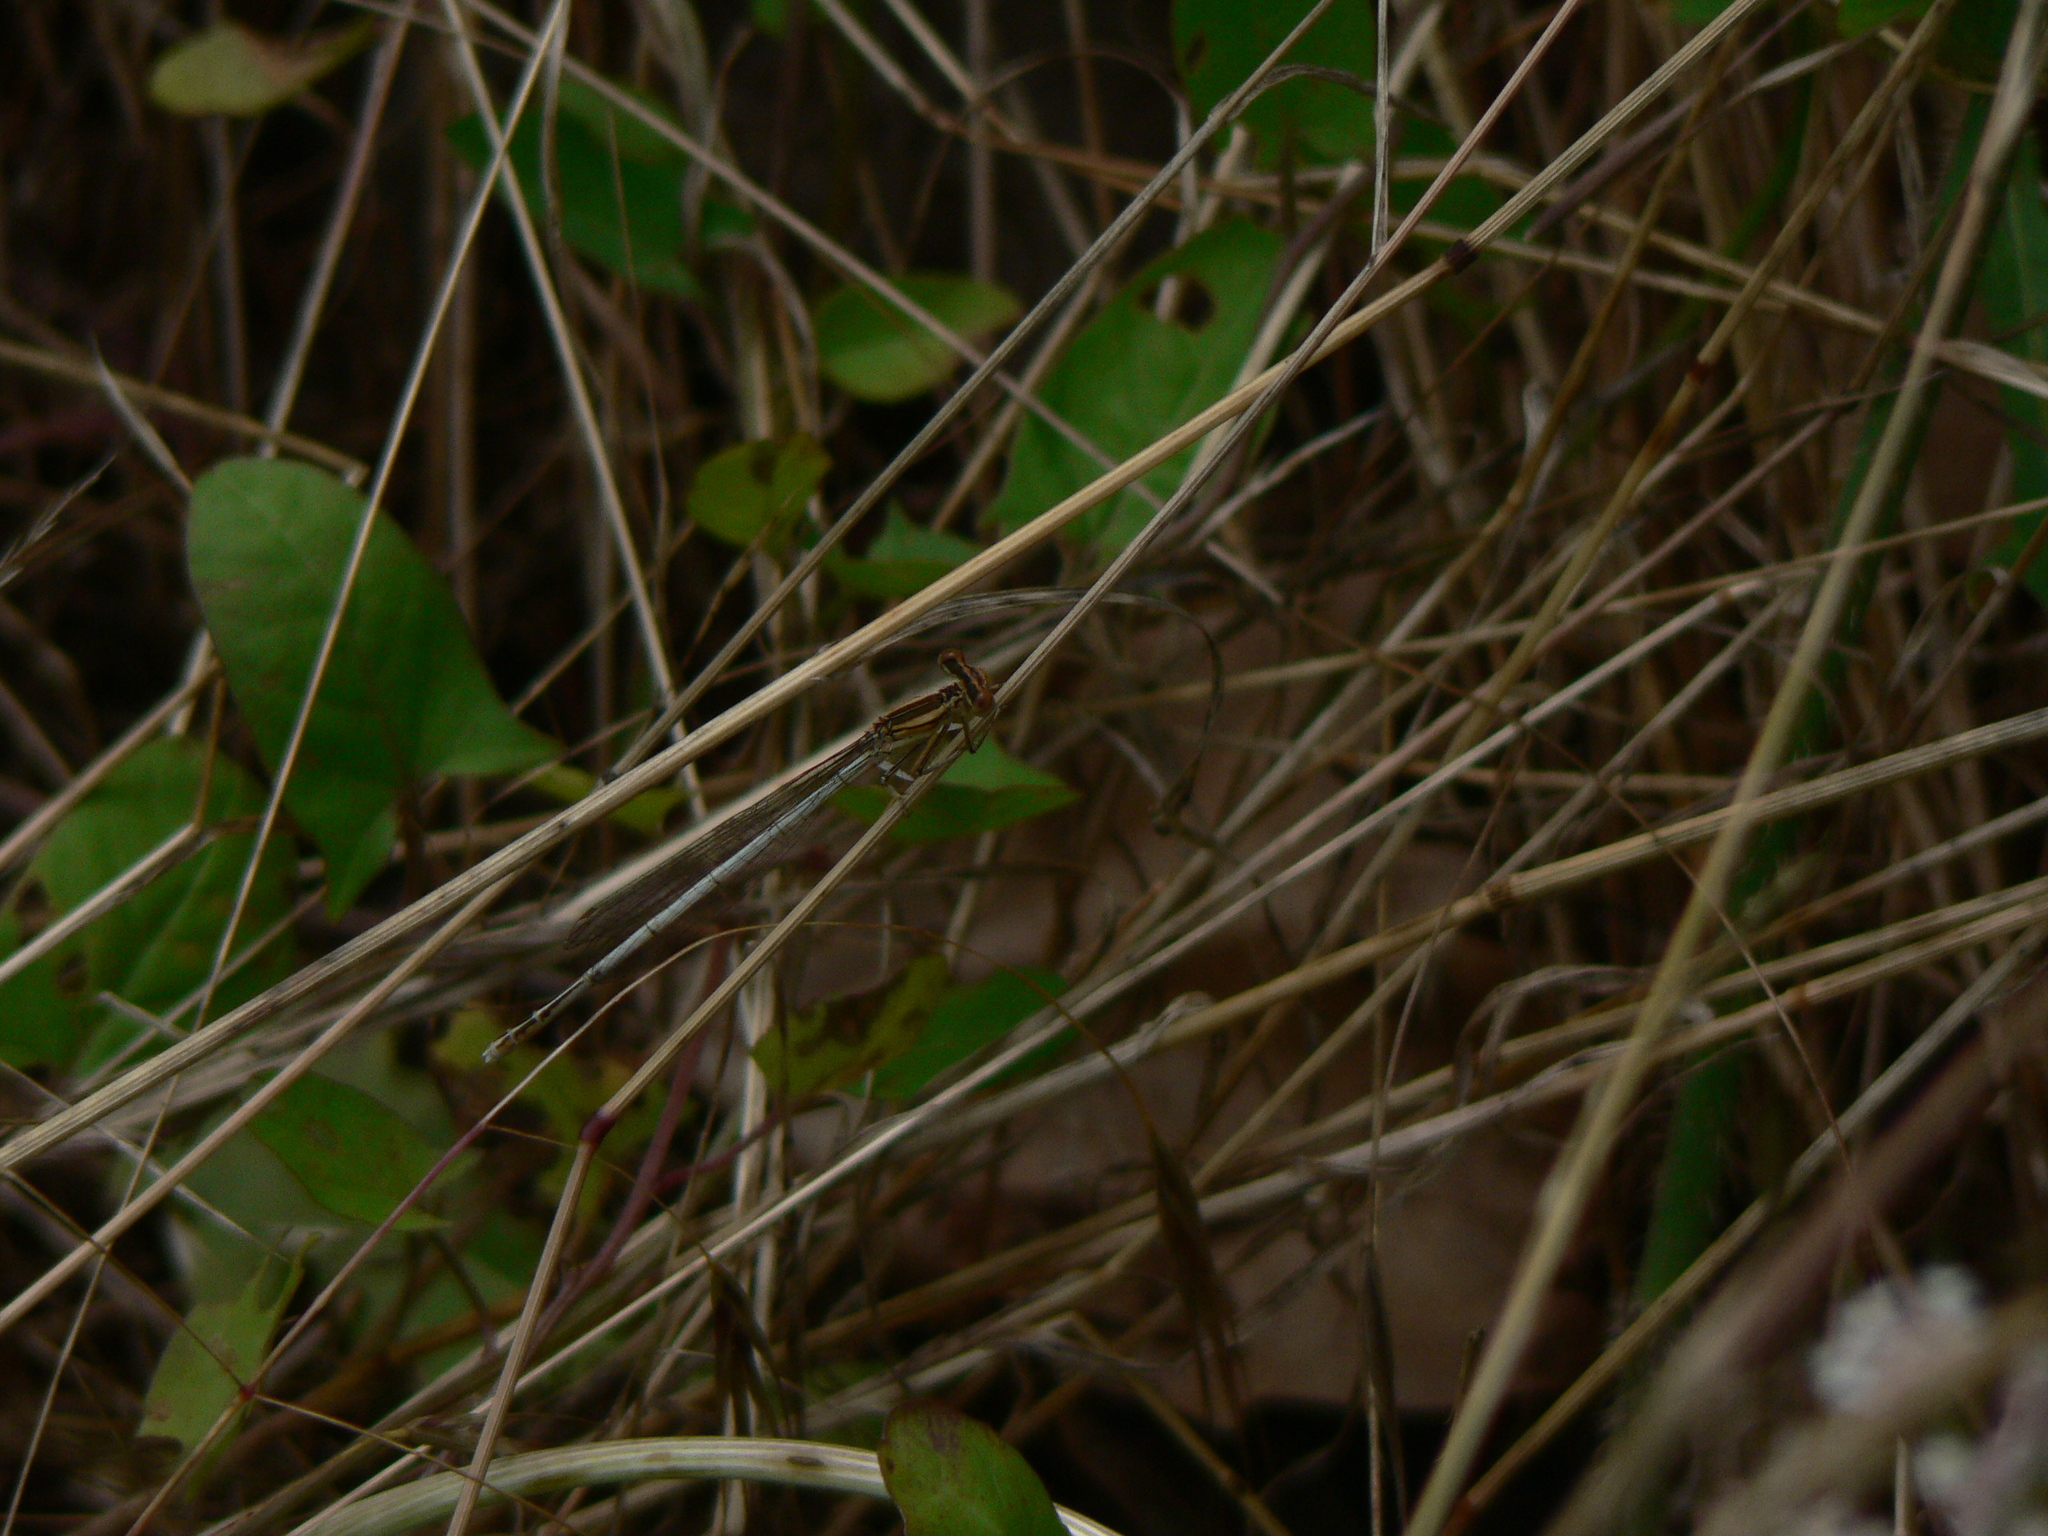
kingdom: Animalia
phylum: Arthropoda
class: Insecta
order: Odonata
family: Platycnemididae
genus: Platycnemis
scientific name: Platycnemis latipes
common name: White featherleg
